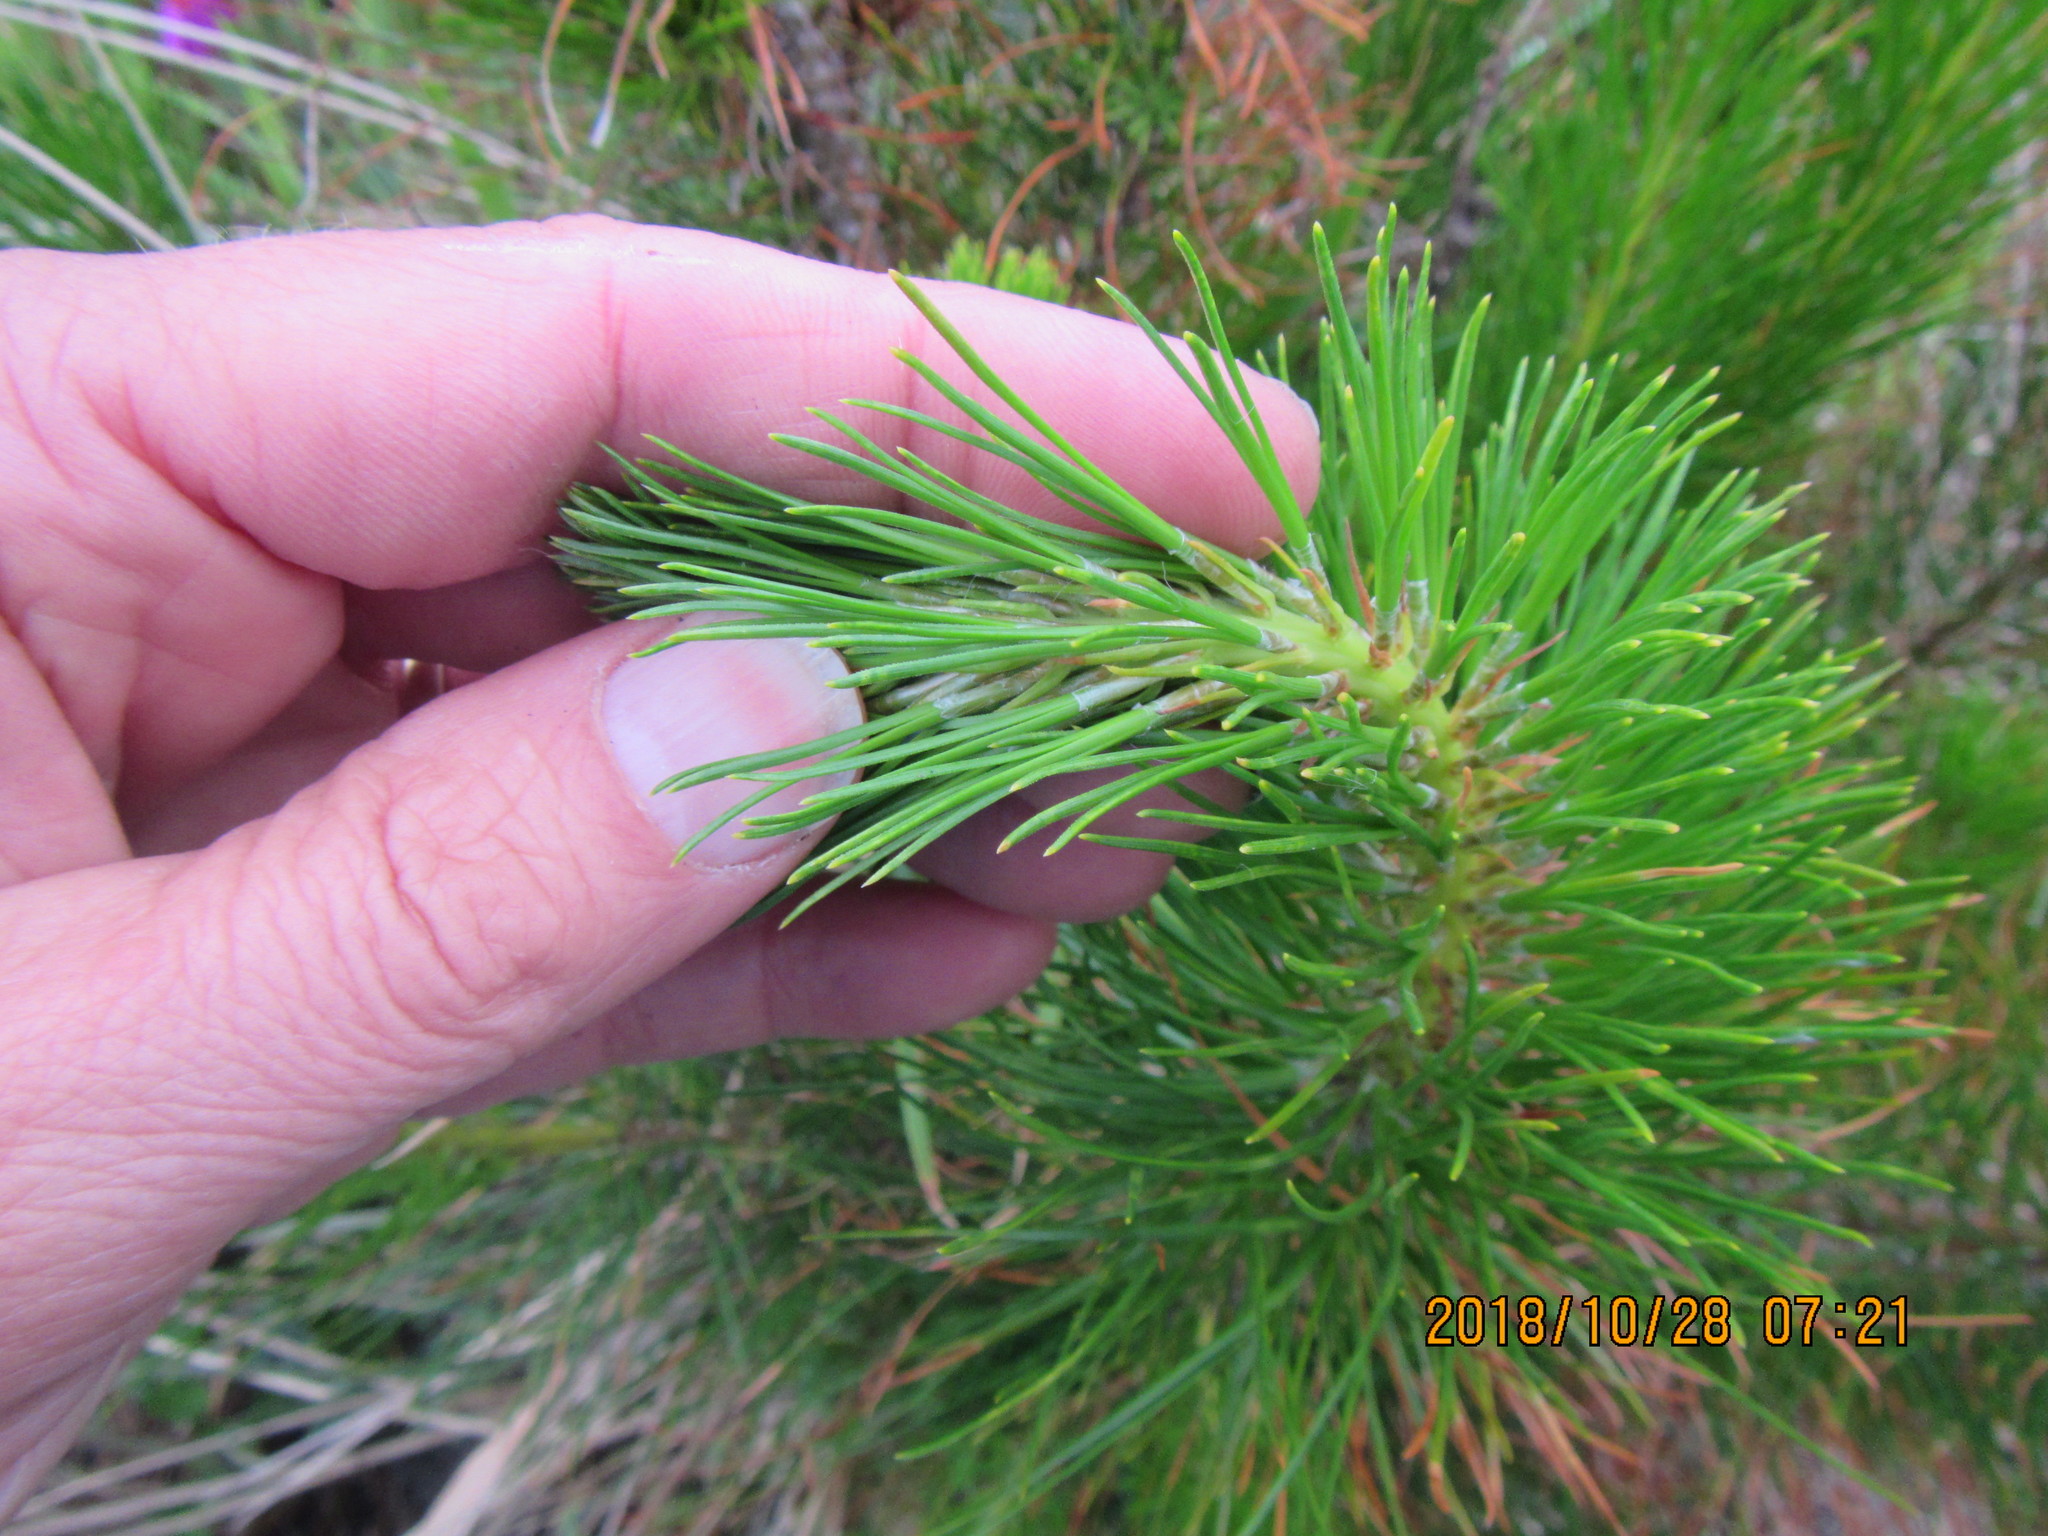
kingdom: Plantae
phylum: Tracheophyta
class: Pinopsida
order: Pinales
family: Pinaceae
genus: Pinus
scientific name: Pinus radiata
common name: Monterey pine
